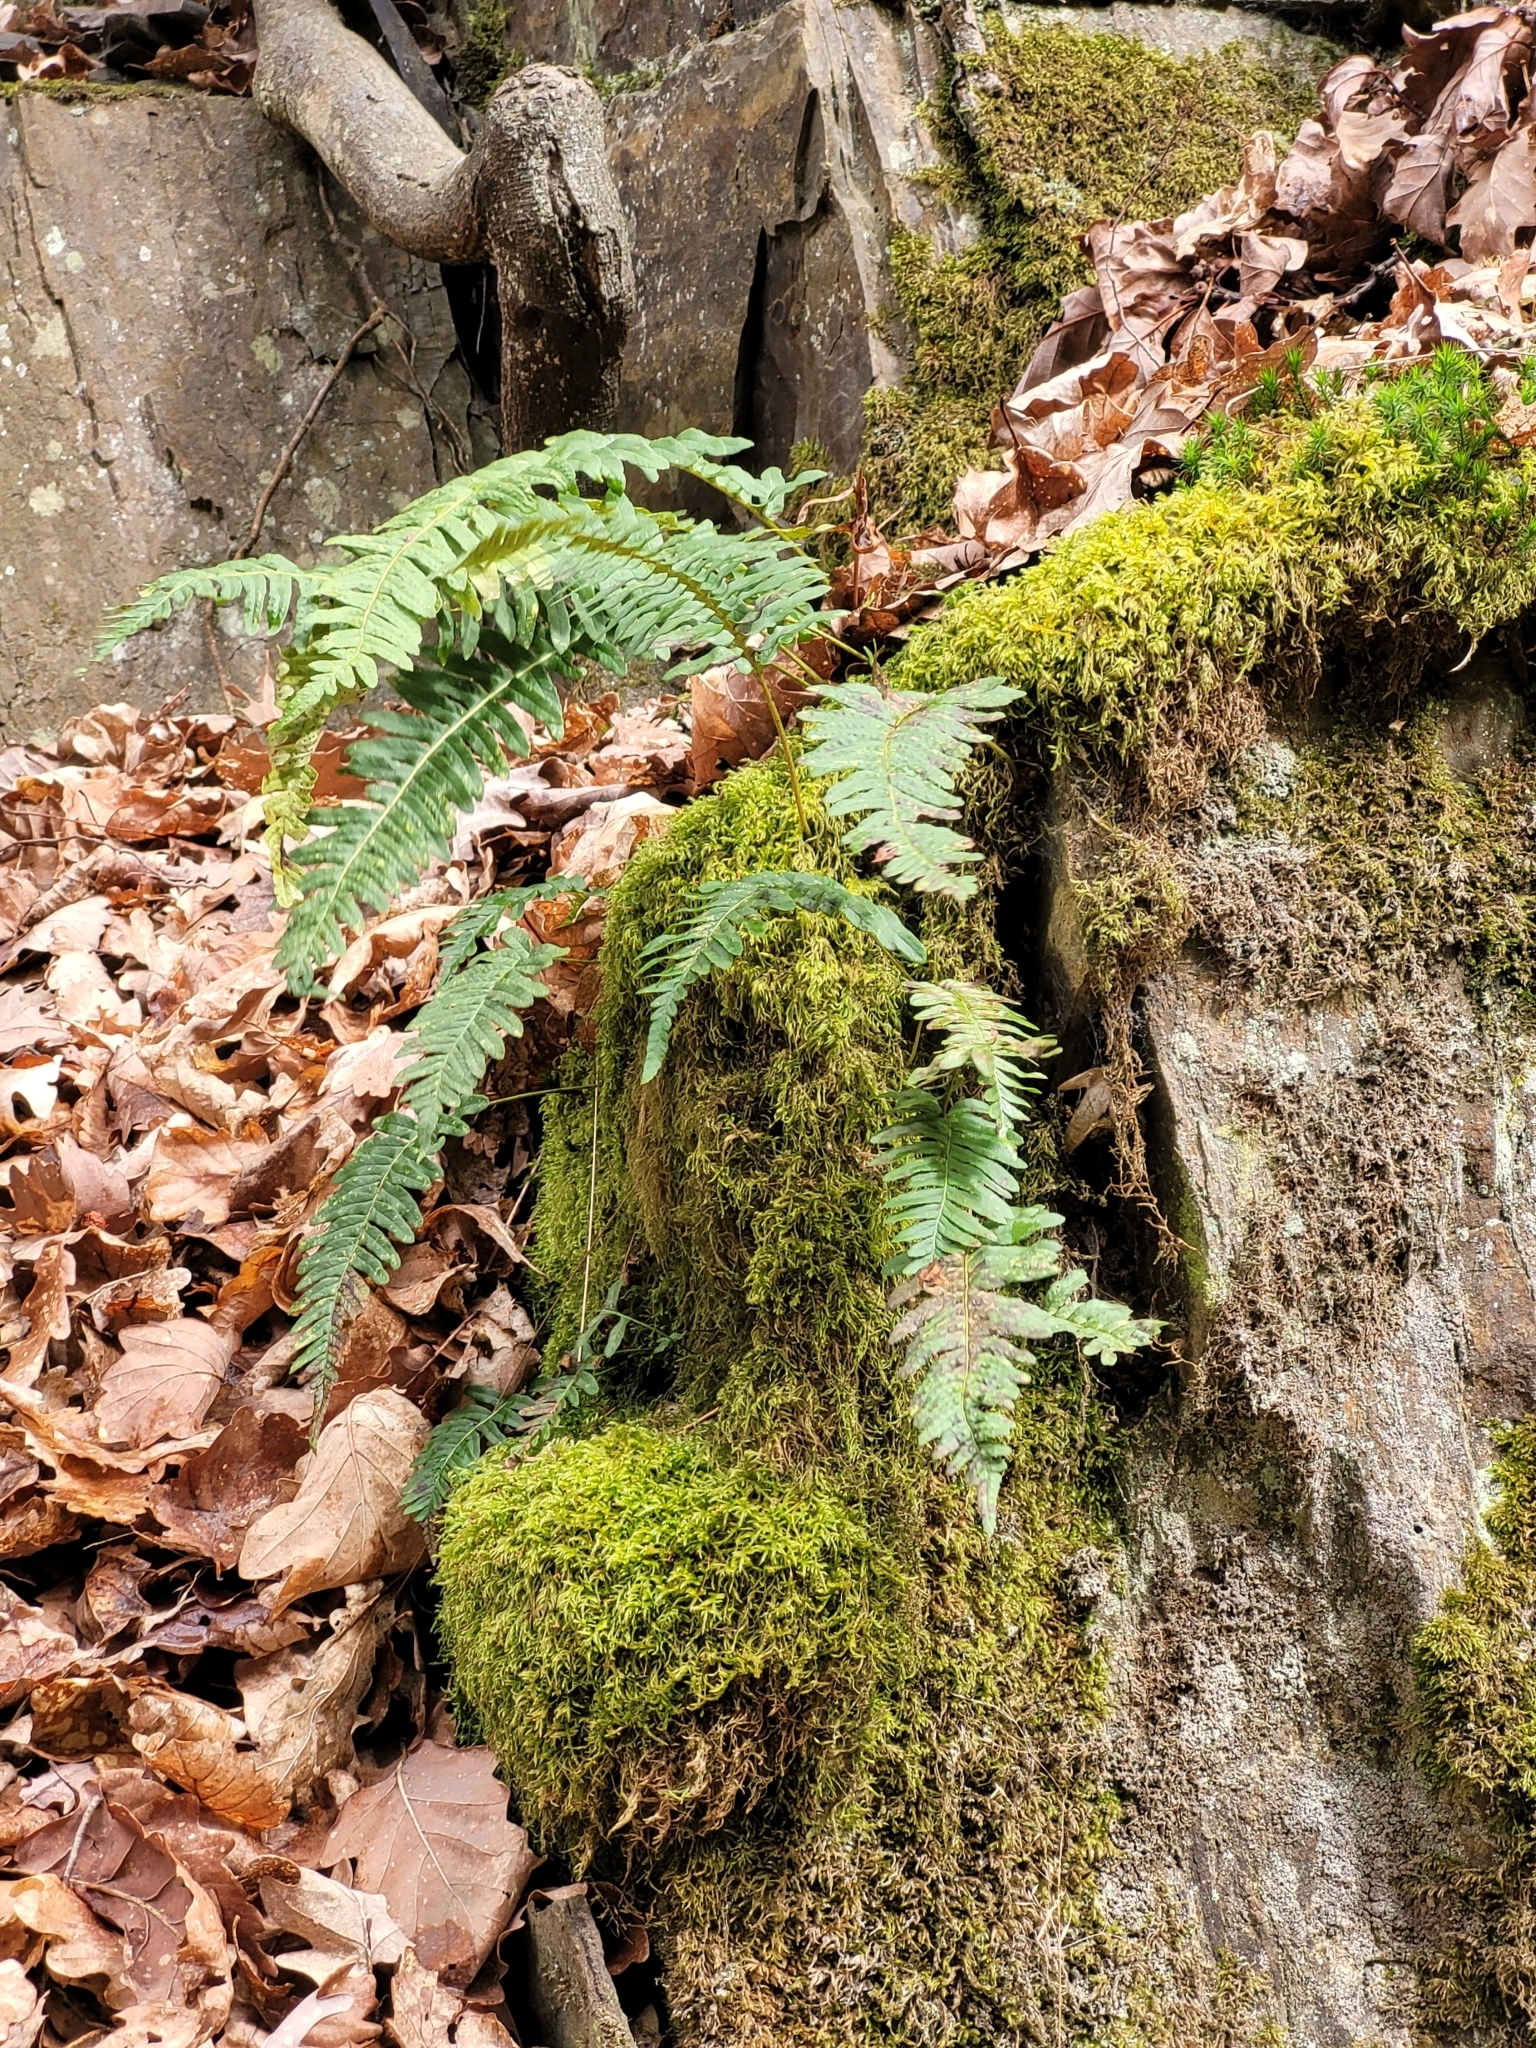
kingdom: Plantae
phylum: Tracheophyta
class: Polypodiopsida
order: Polypodiales
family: Polypodiaceae
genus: Polypodium
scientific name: Polypodium vulgare
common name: Common polypody
